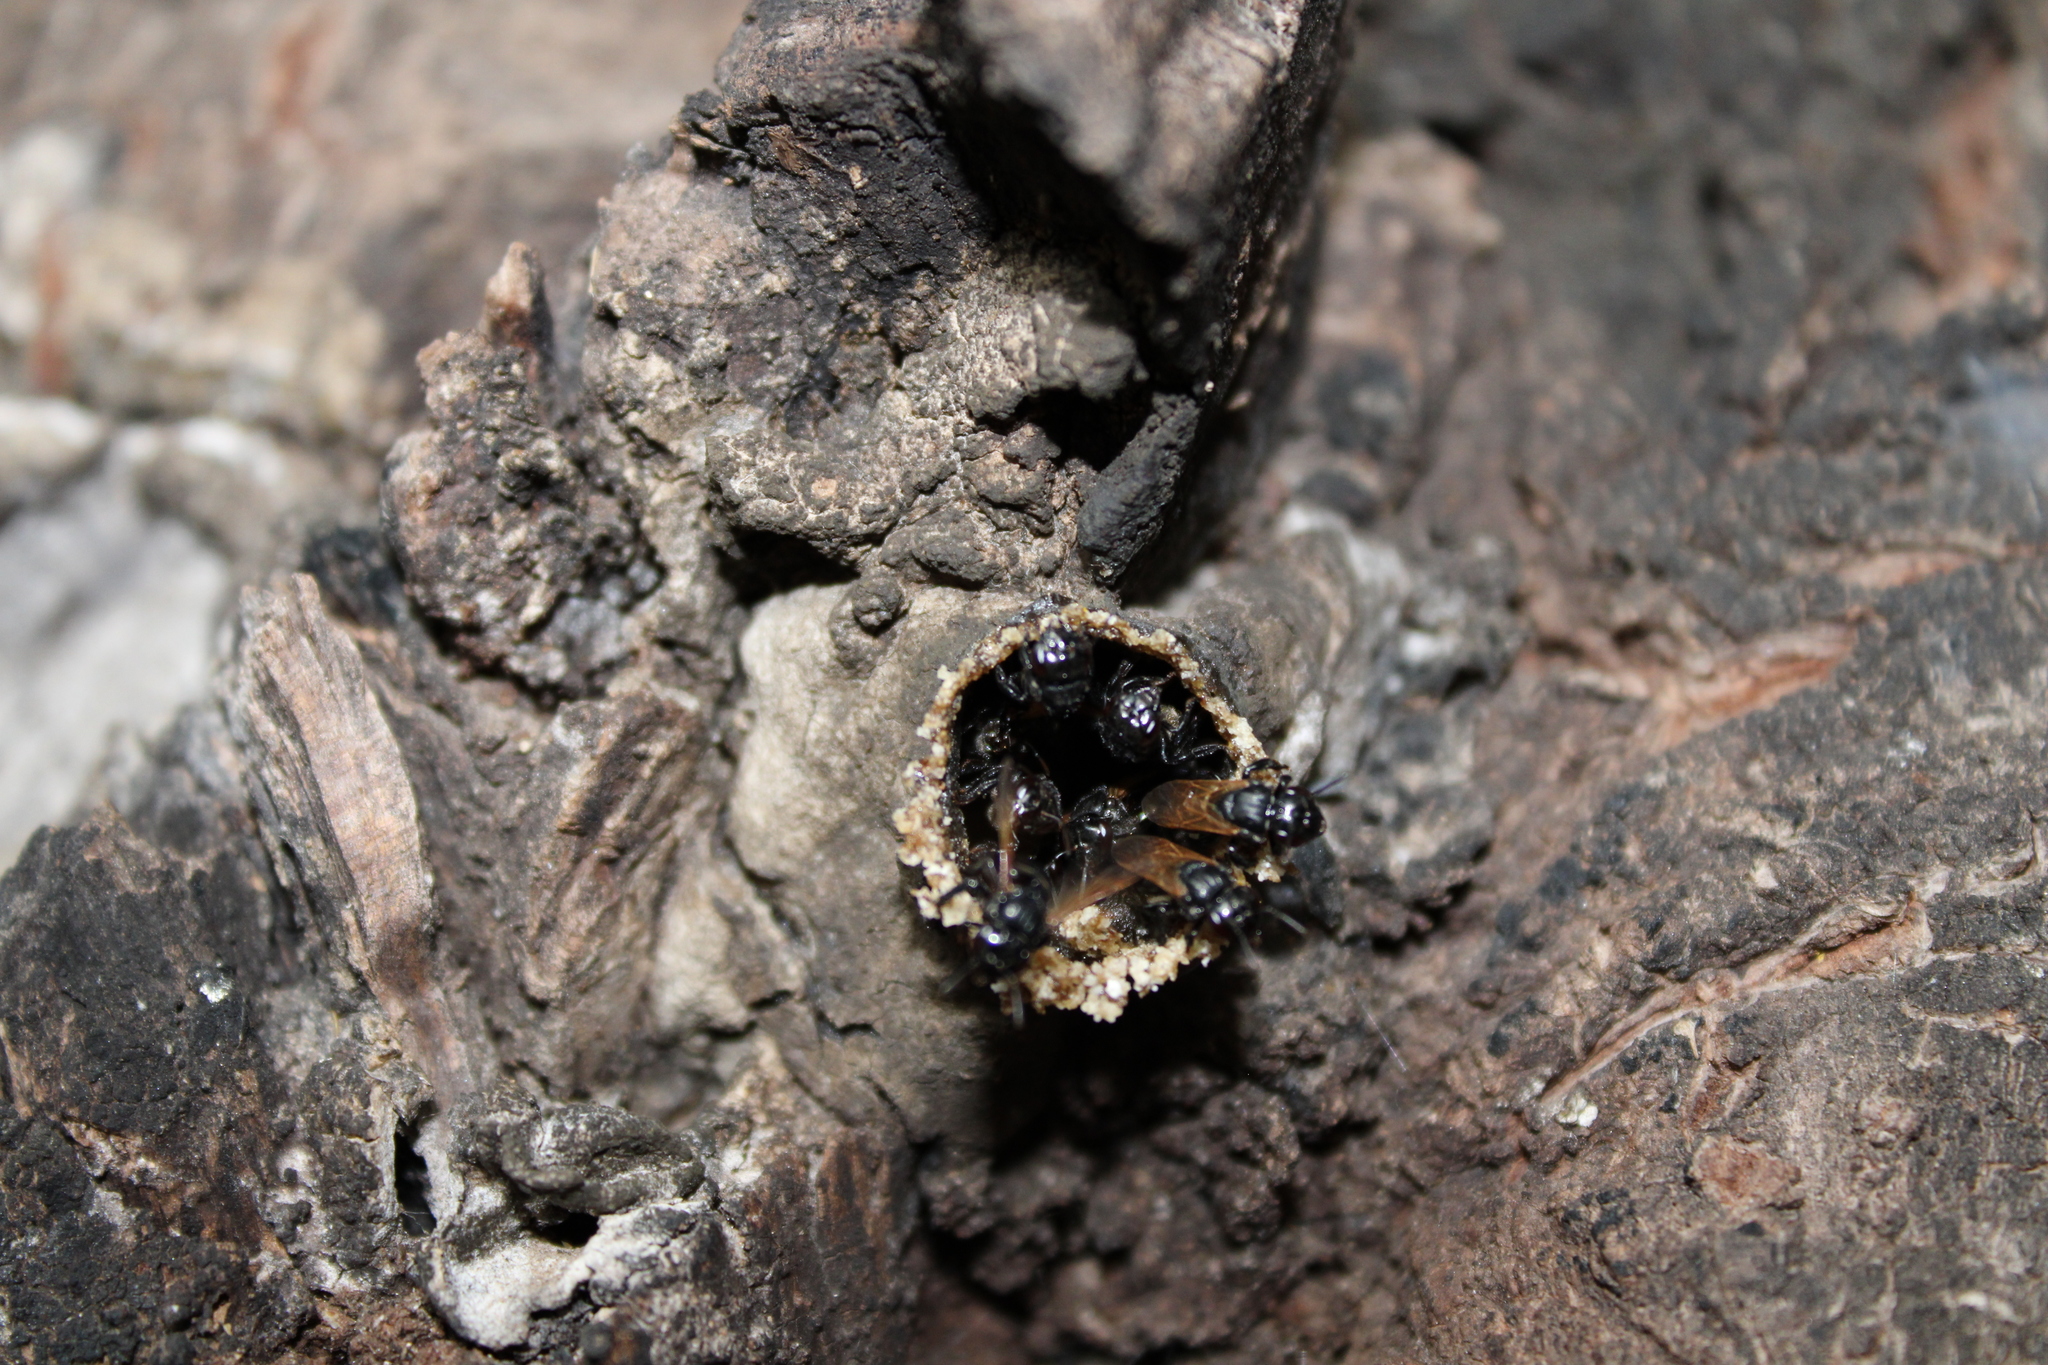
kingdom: Animalia
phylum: Arthropoda
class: Insecta
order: Hymenoptera
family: Apidae
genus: Scaptotrigona
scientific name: Scaptotrigona mexicana
